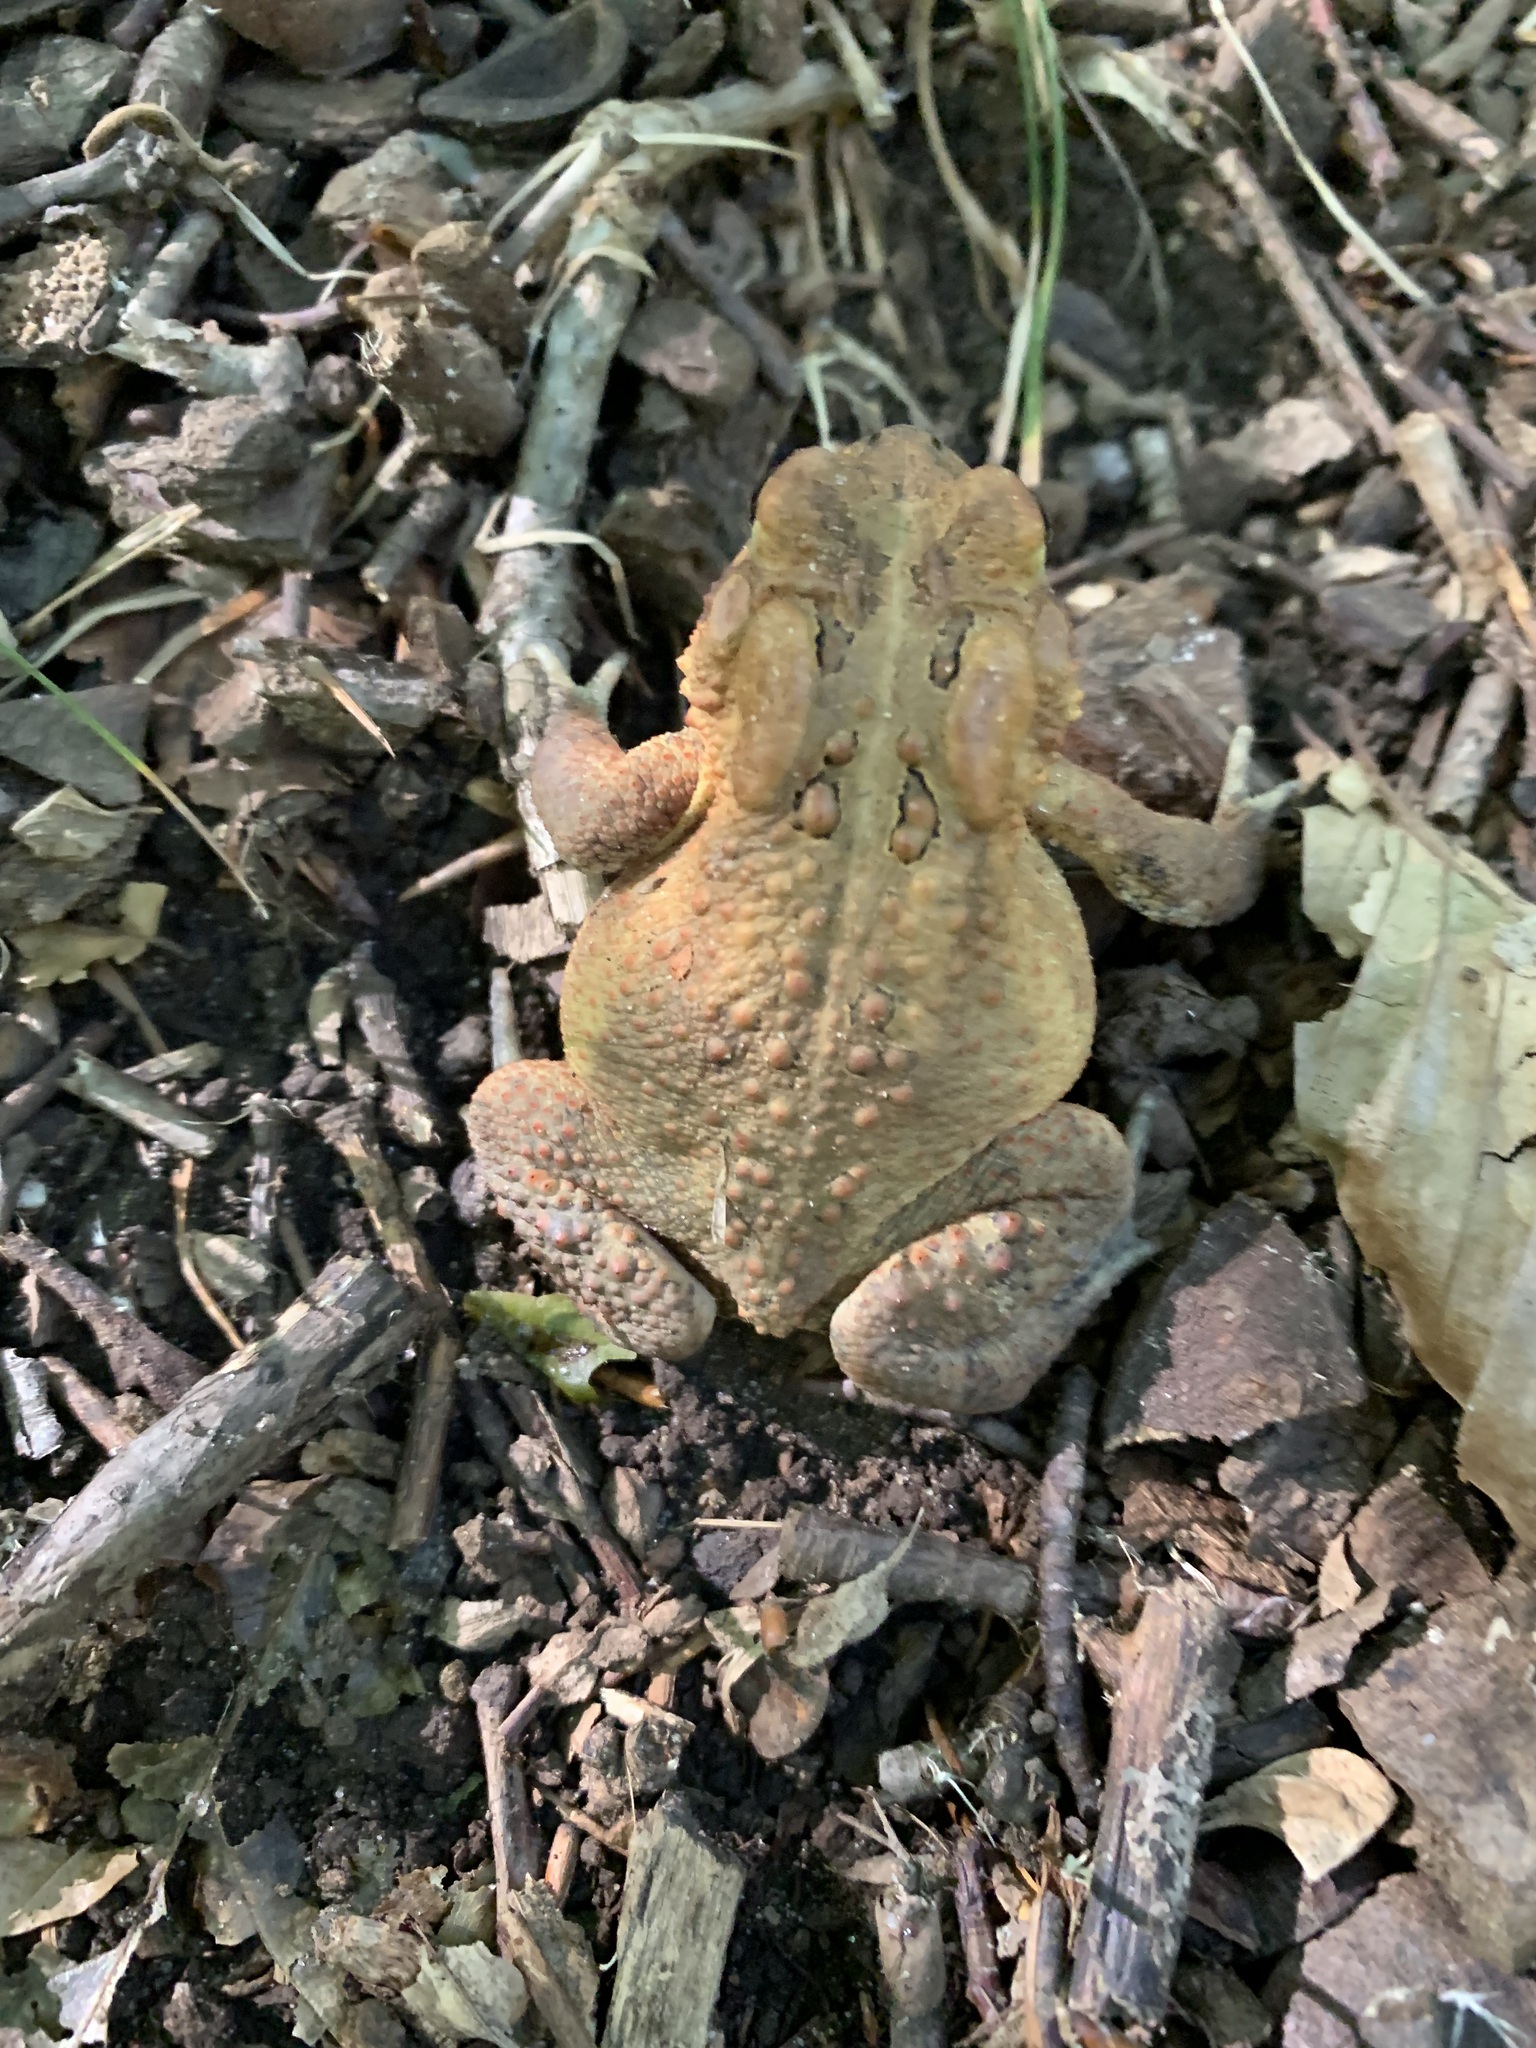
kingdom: Animalia
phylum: Chordata
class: Amphibia
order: Anura
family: Bufonidae
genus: Anaxyrus
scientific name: Anaxyrus americanus
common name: American toad
